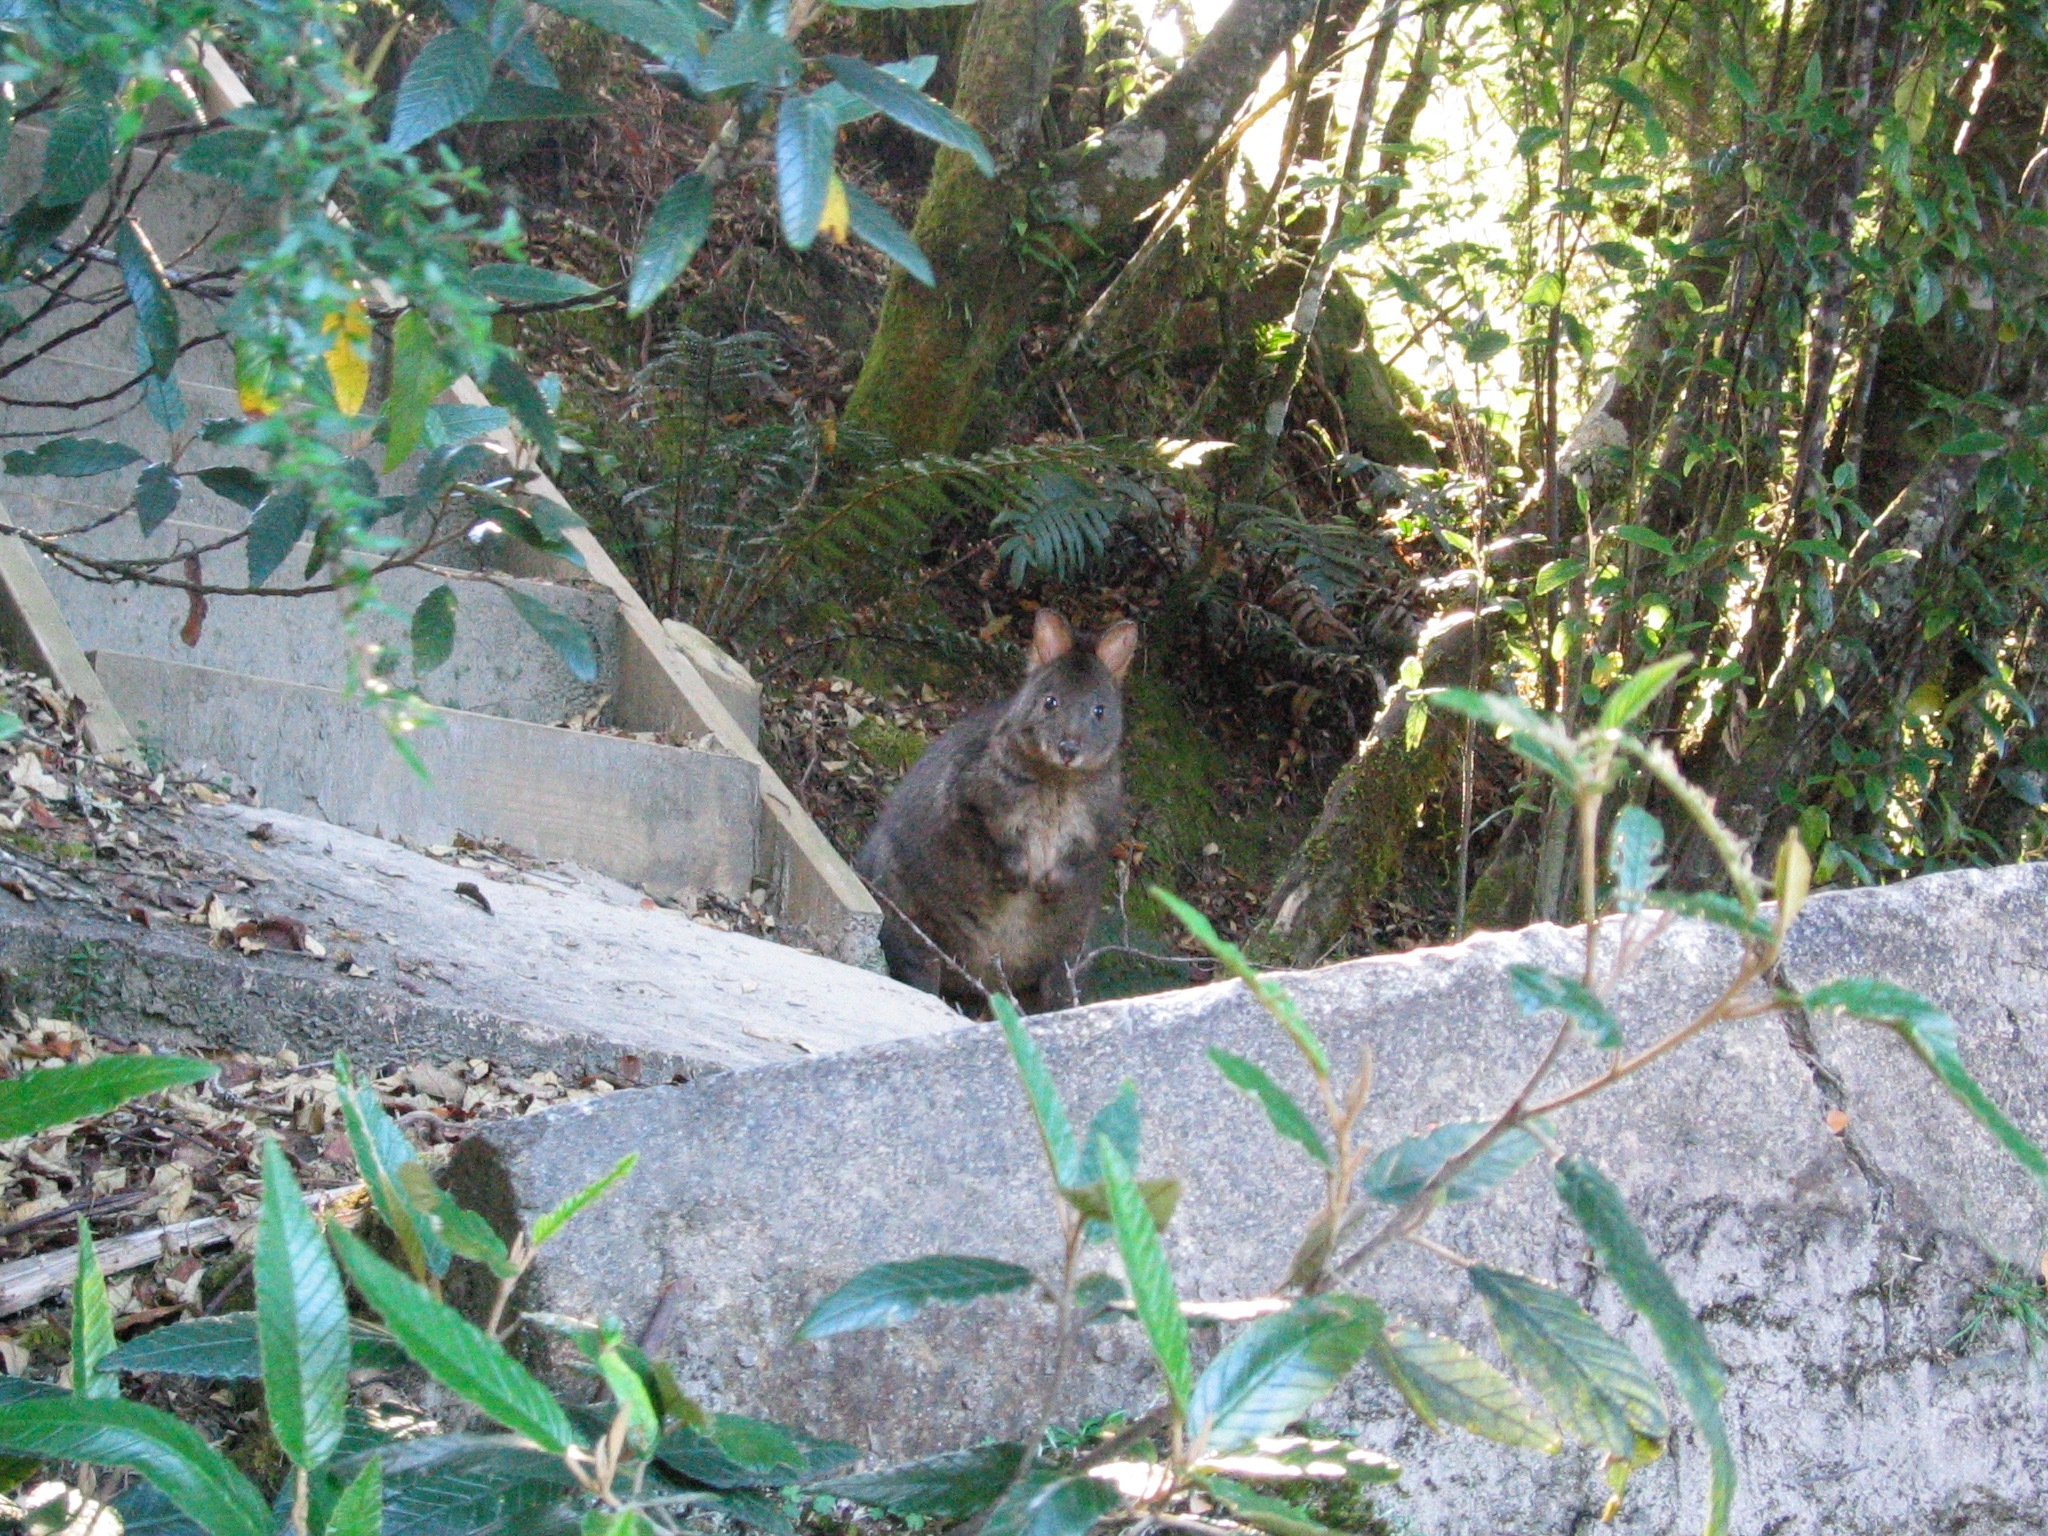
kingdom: Animalia
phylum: Chordata
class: Mammalia
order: Diprotodontia
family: Macropodidae
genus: Thylogale
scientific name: Thylogale billardierii
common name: Tasmanian pademelon
